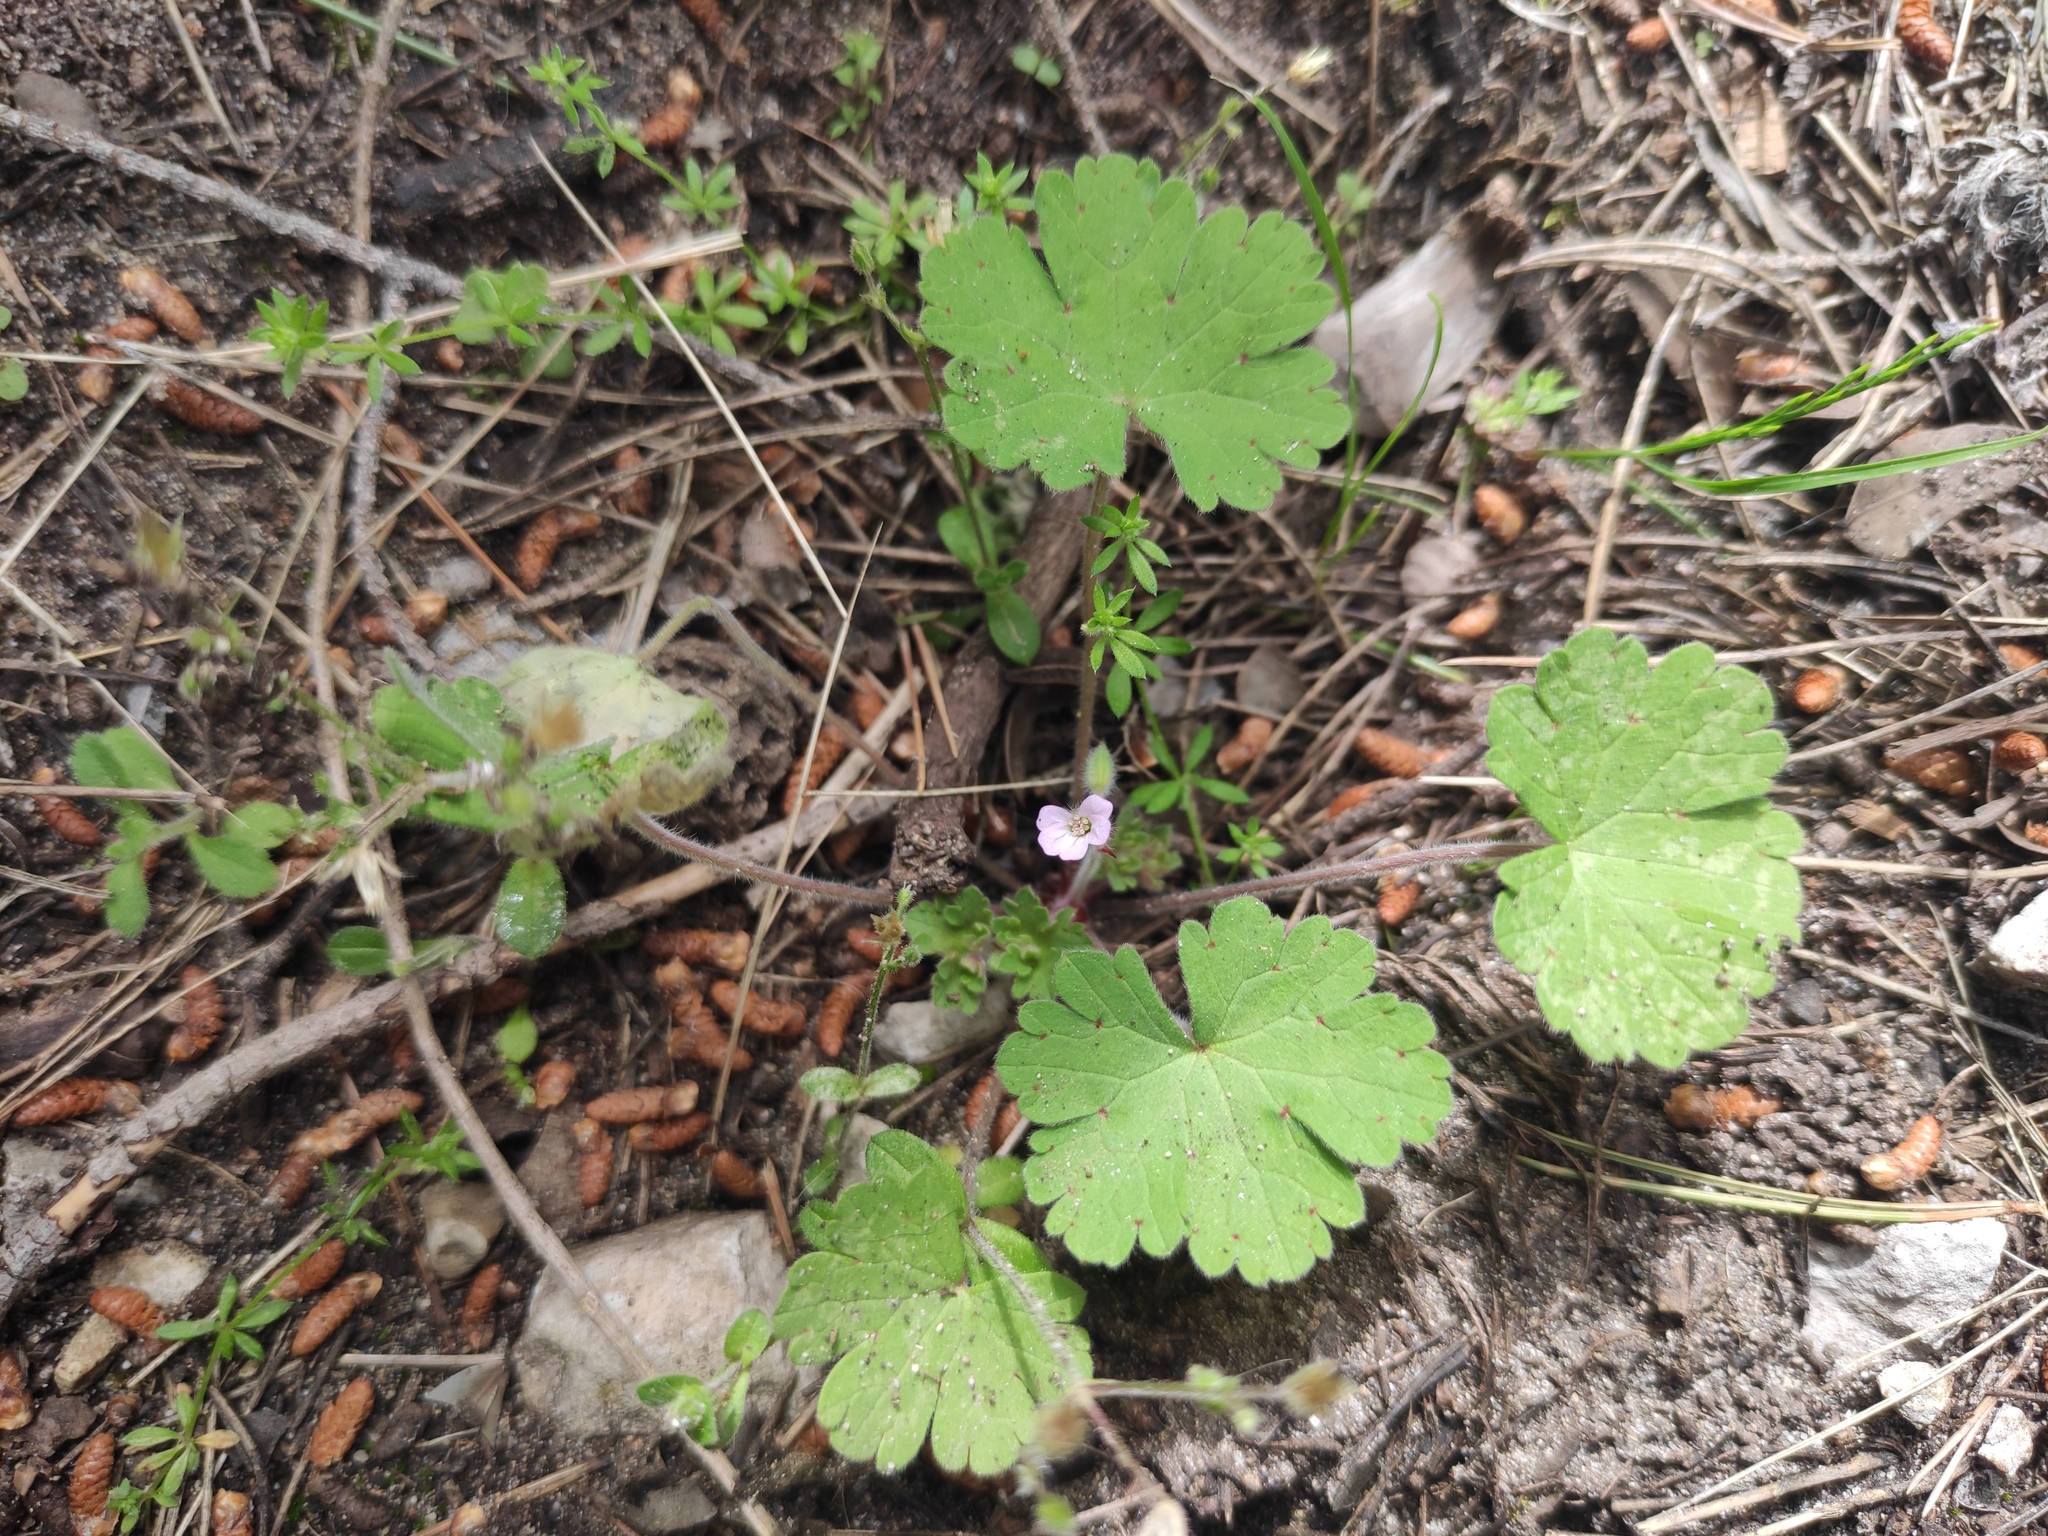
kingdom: Plantae
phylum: Tracheophyta
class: Magnoliopsida
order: Geraniales
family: Geraniaceae
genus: Geranium
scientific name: Geranium rotundifolium
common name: Round-leaved crane's-bill
